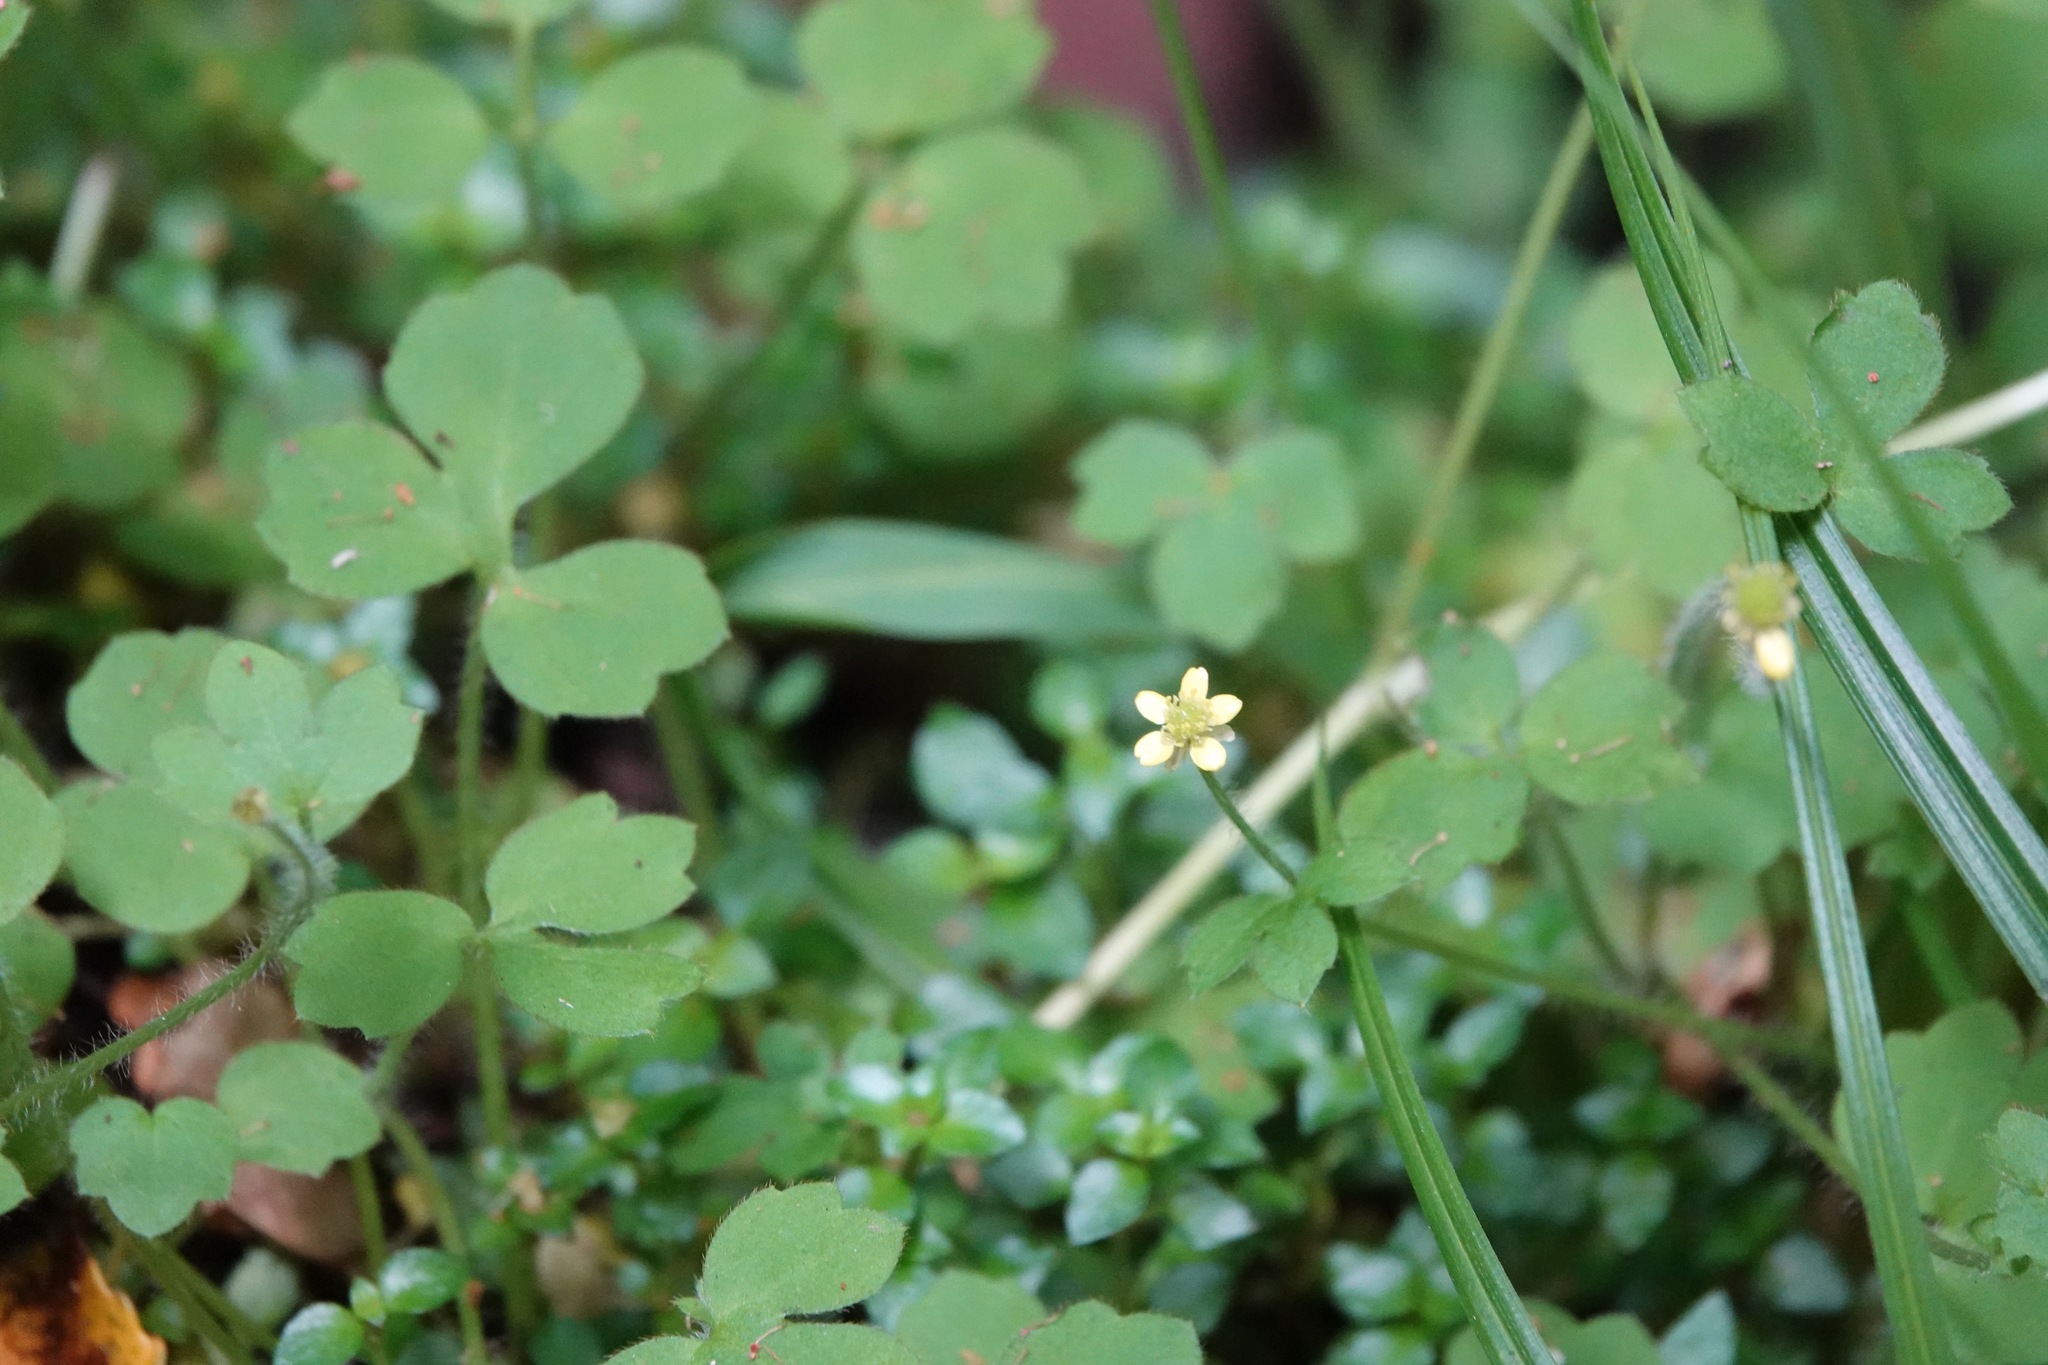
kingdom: Plantae
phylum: Tracheophyta
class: Magnoliopsida
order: Ranunculales
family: Ranunculaceae
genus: Ranunculus
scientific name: Ranunculus reflexus
